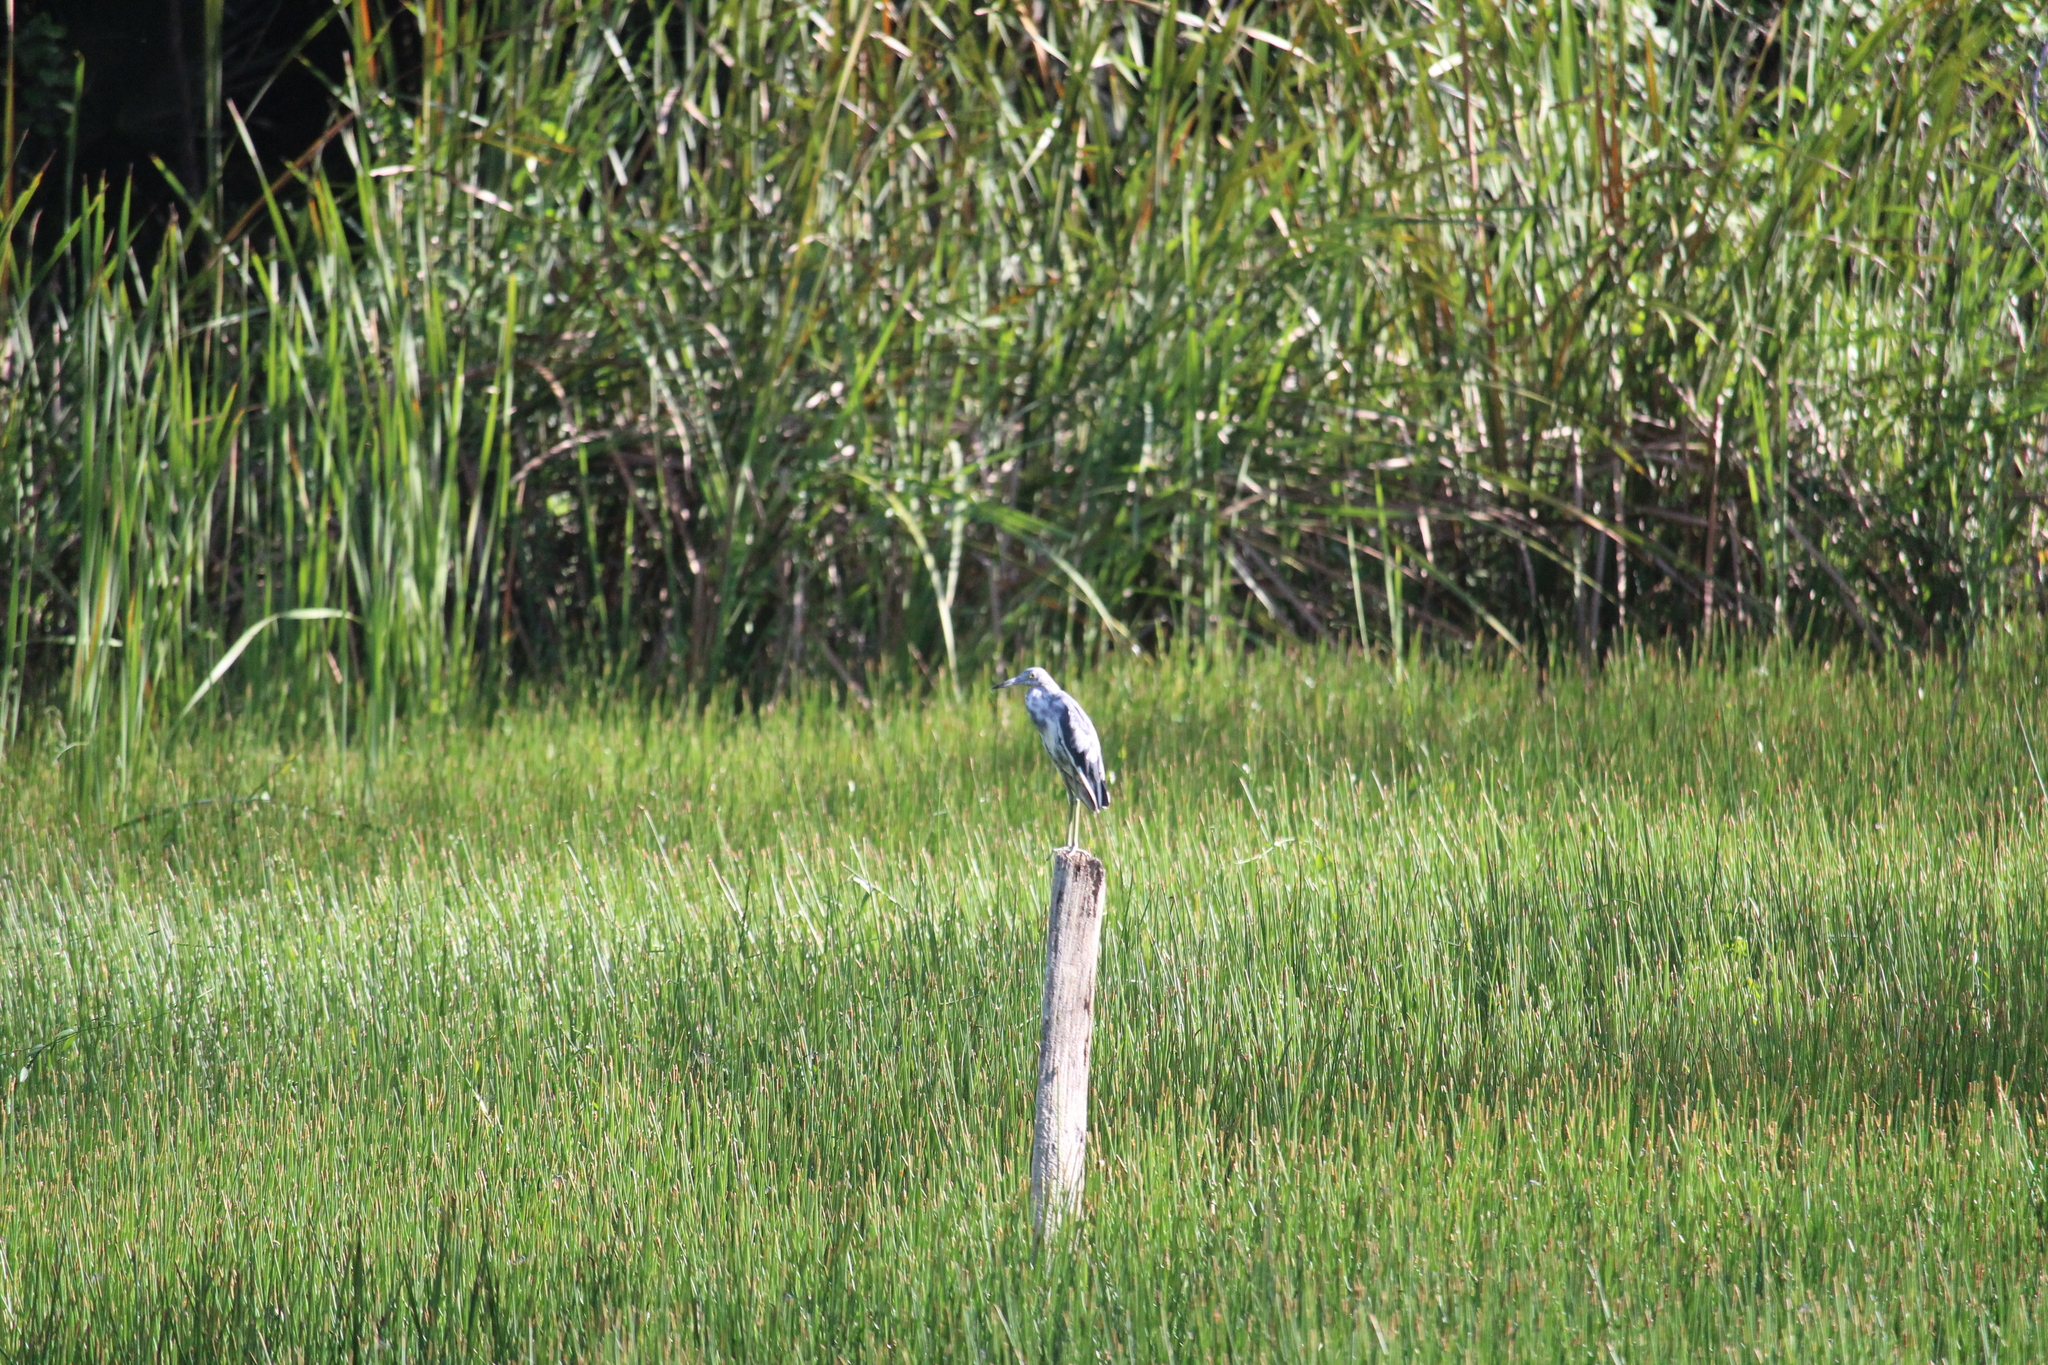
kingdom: Animalia
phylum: Chordata
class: Aves
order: Pelecaniformes
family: Ardeidae
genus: Egretta
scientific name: Egretta caerulea
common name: Little blue heron
